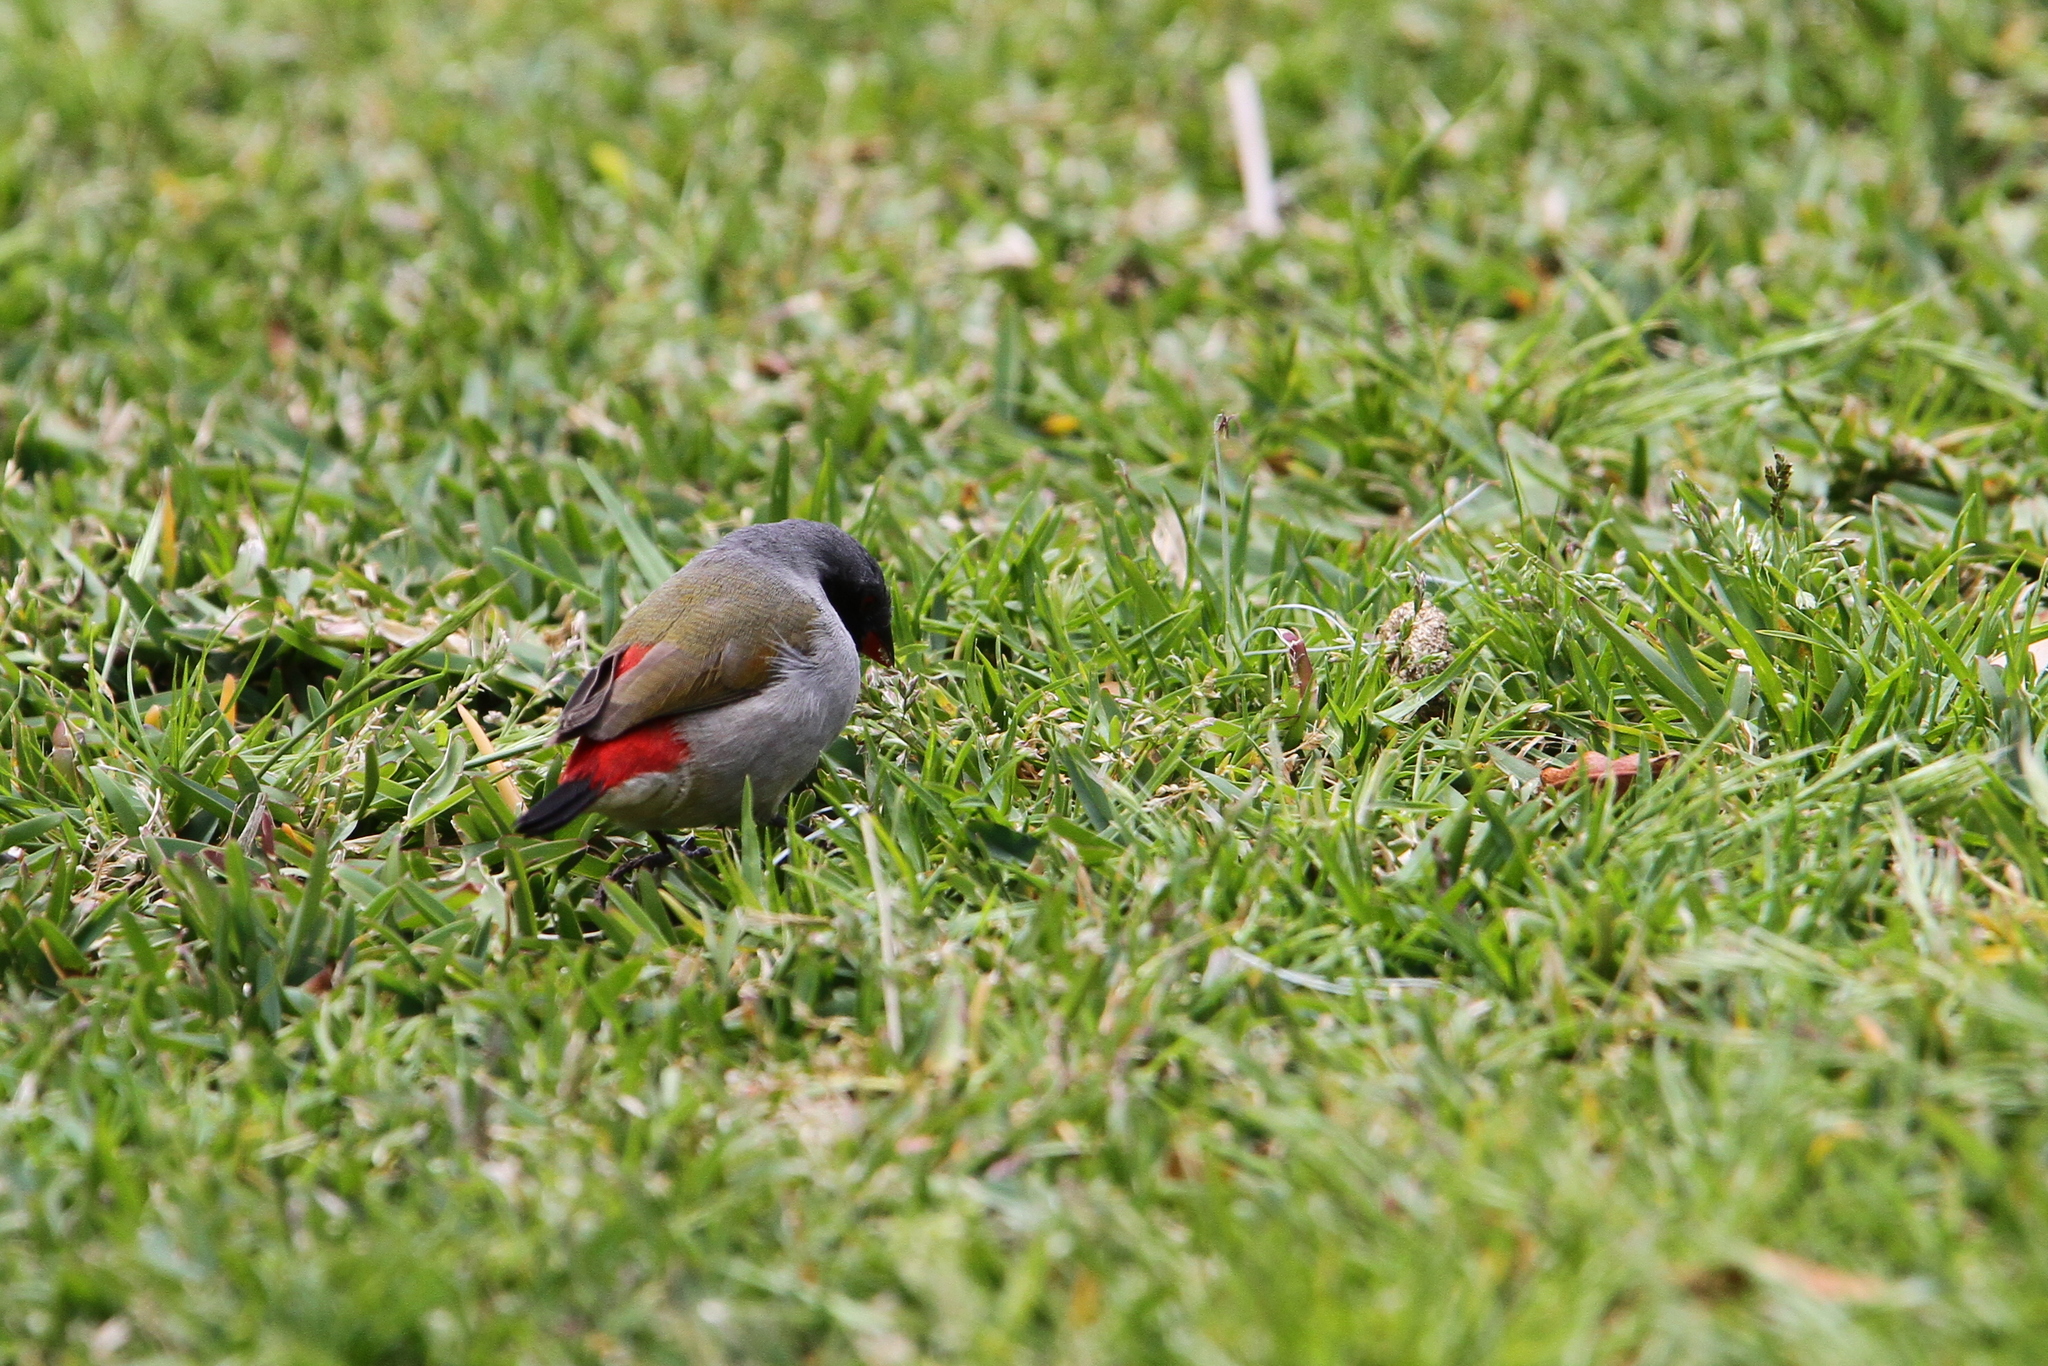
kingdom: Animalia
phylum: Chordata
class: Aves
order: Passeriformes
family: Estrildidae
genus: Coccopygia
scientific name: Coccopygia melanotis
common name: Swee waxbill
